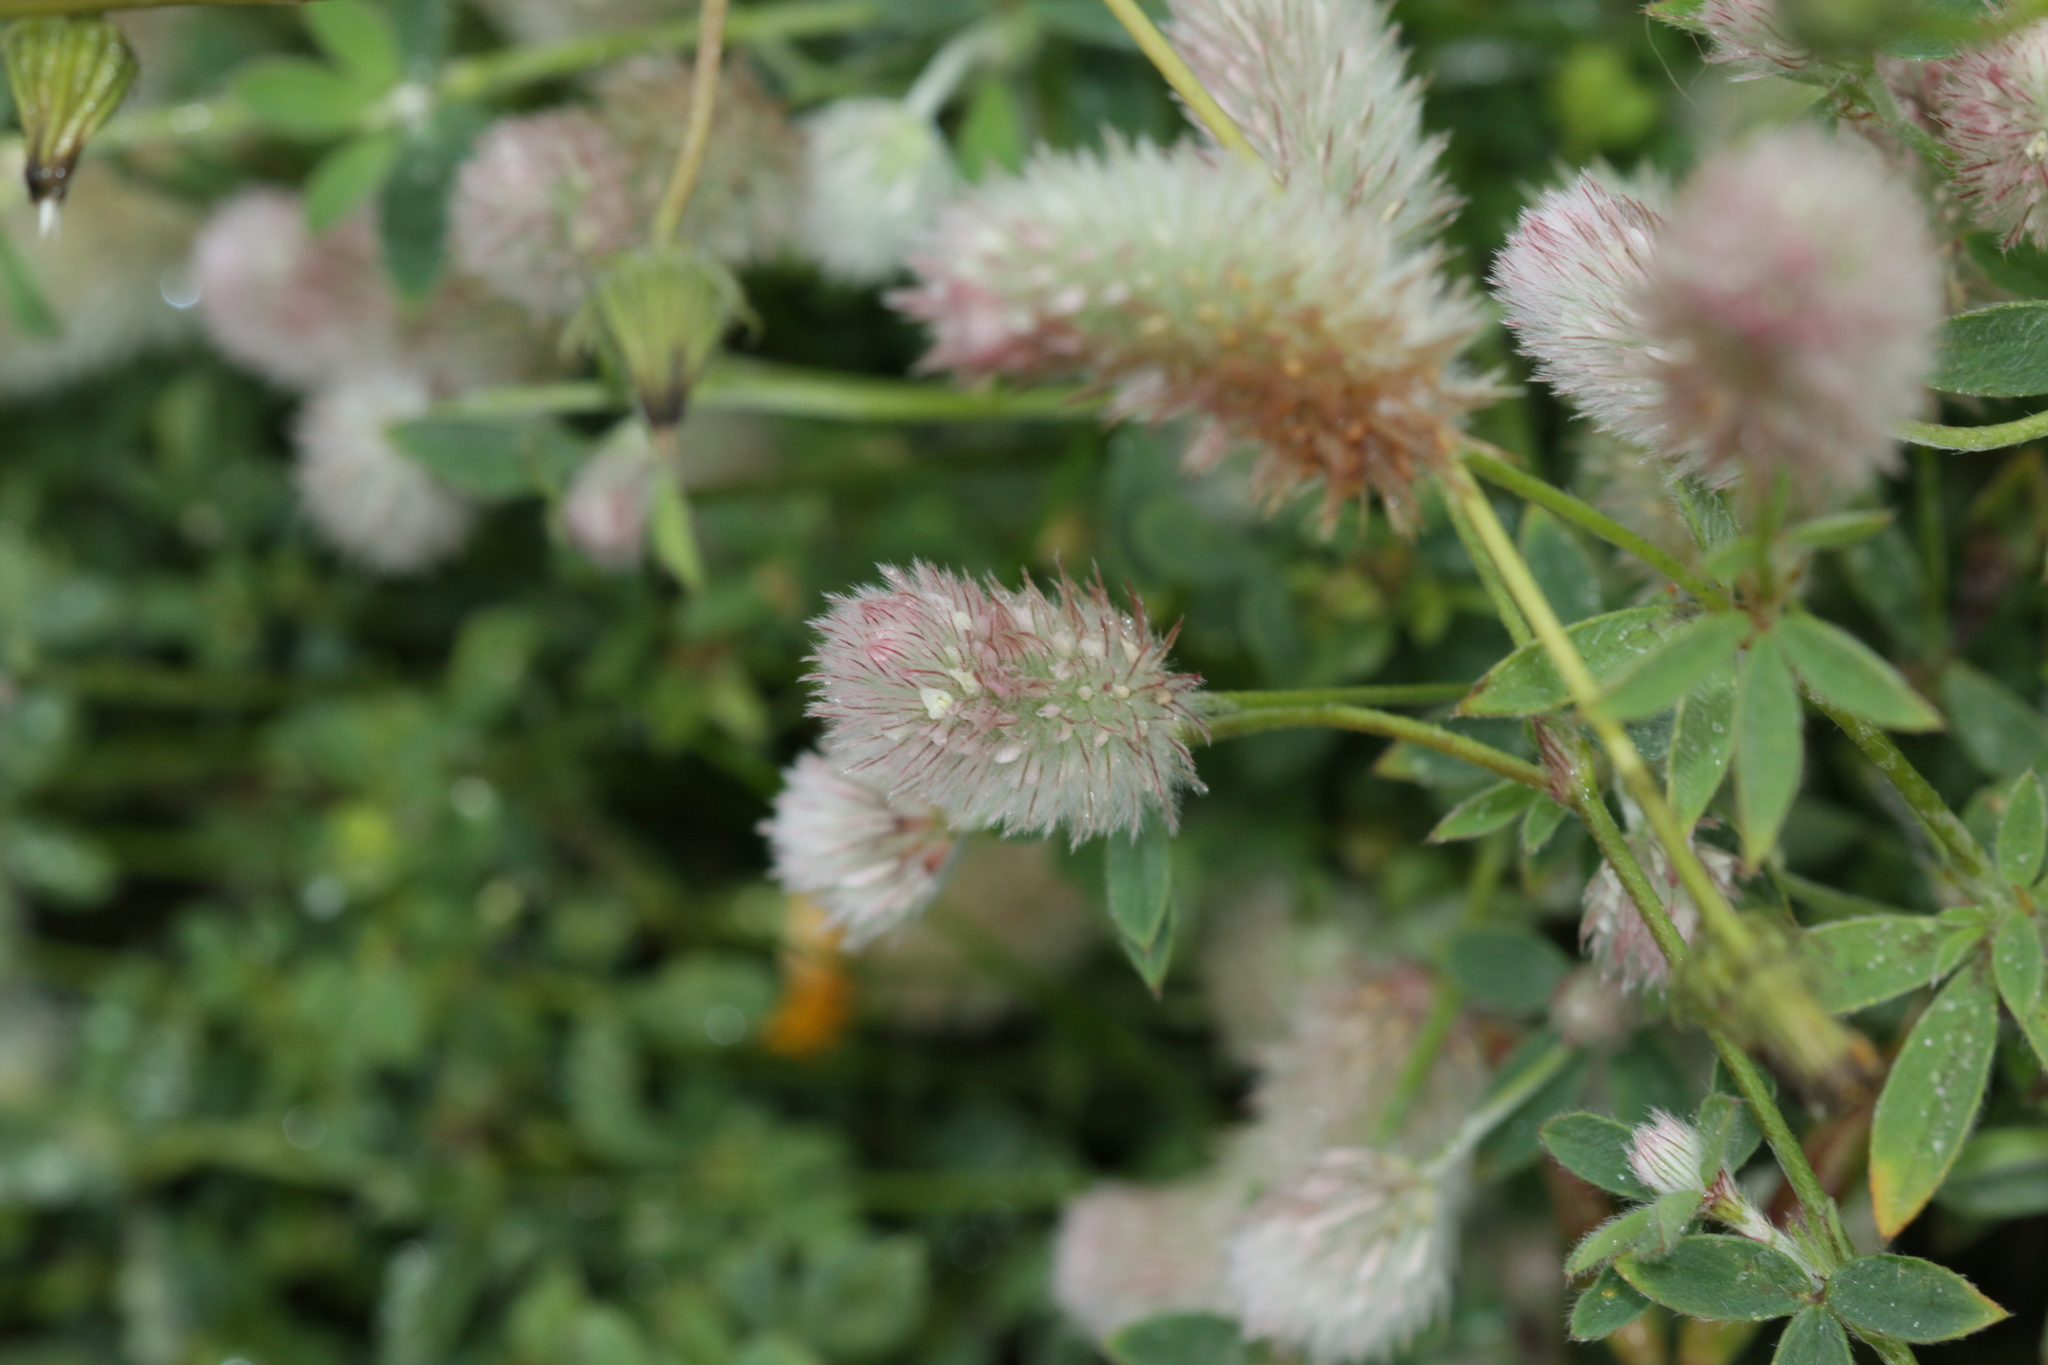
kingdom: Plantae
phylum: Tracheophyta
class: Magnoliopsida
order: Fabales
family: Fabaceae
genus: Trifolium
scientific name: Trifolium arvense
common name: Hare's-foot clover
